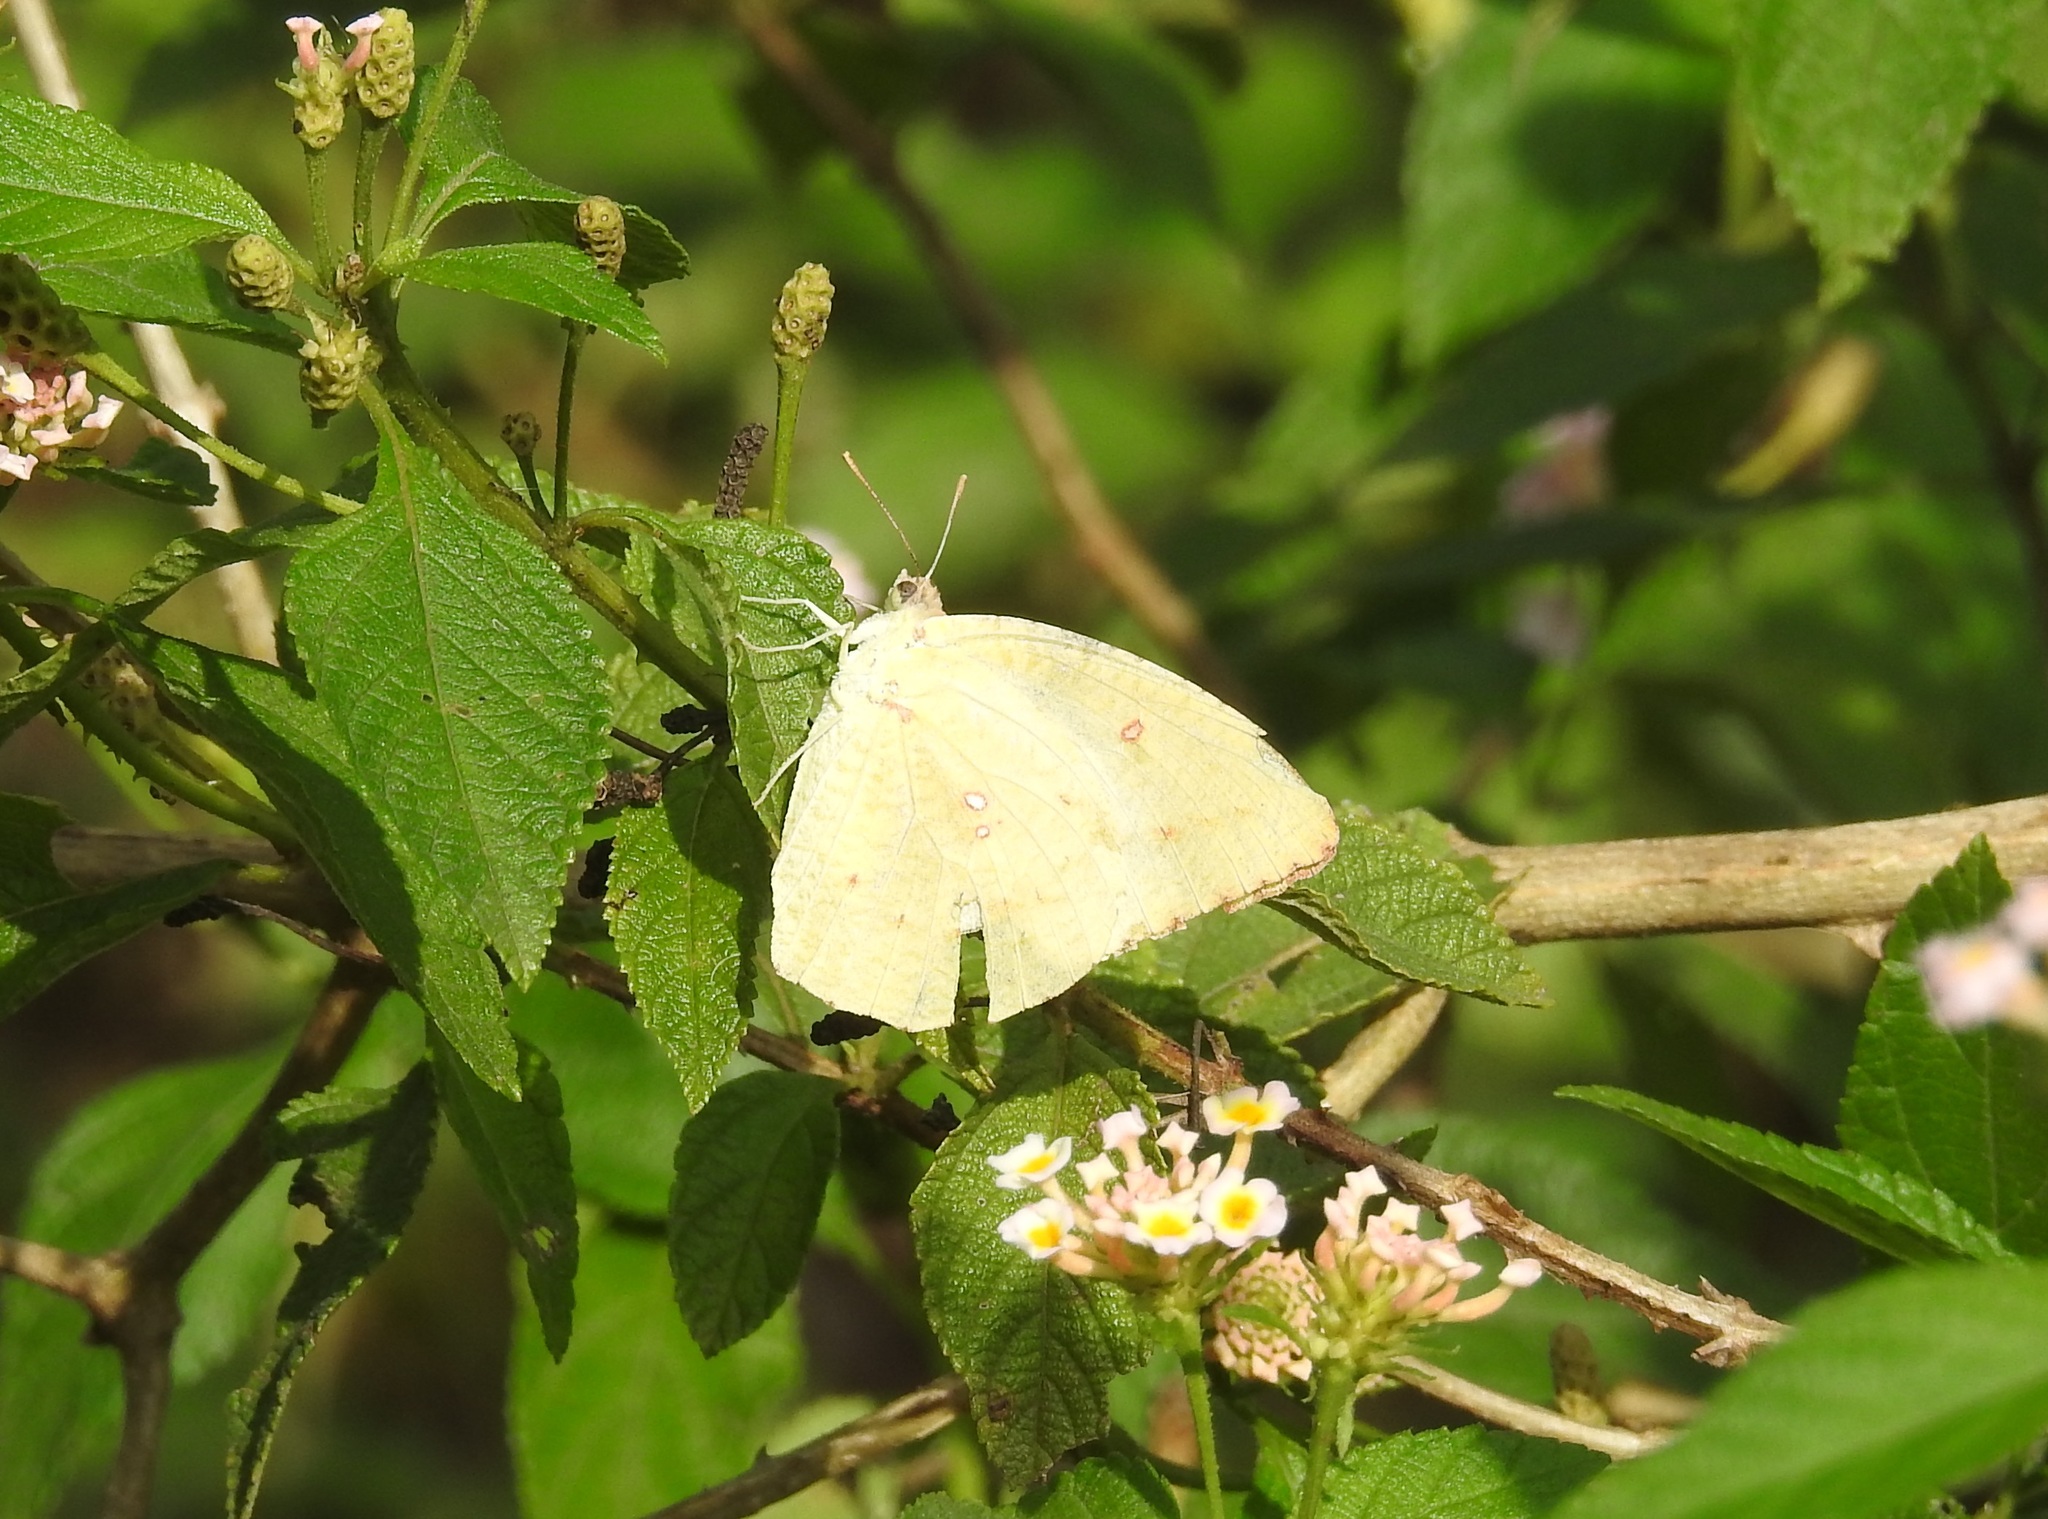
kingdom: Animalia
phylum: Arthropoda
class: Insecta
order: Lepidoptera
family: Pieridae
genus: Catopsilia
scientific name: Catopsilia pomona
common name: Common emigrant
